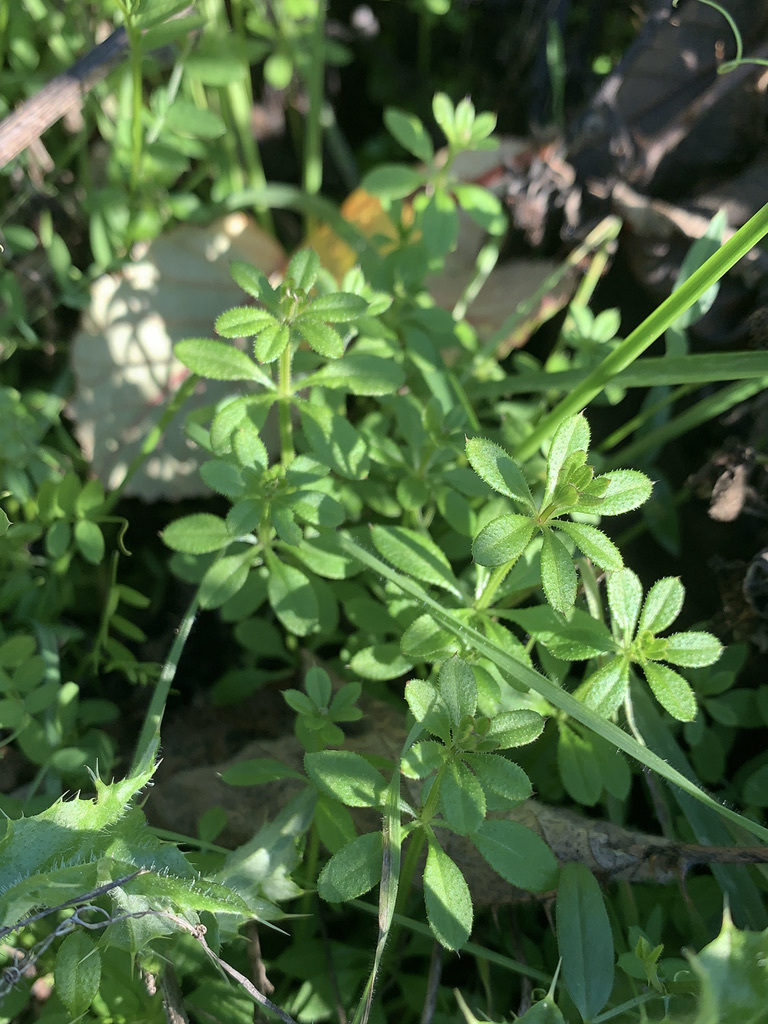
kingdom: Plantae
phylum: Tracheophyta
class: Magnoliopsida
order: Gentianales
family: Rubiaceae
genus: Galium
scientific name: Galium aparine
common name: Cleavers
